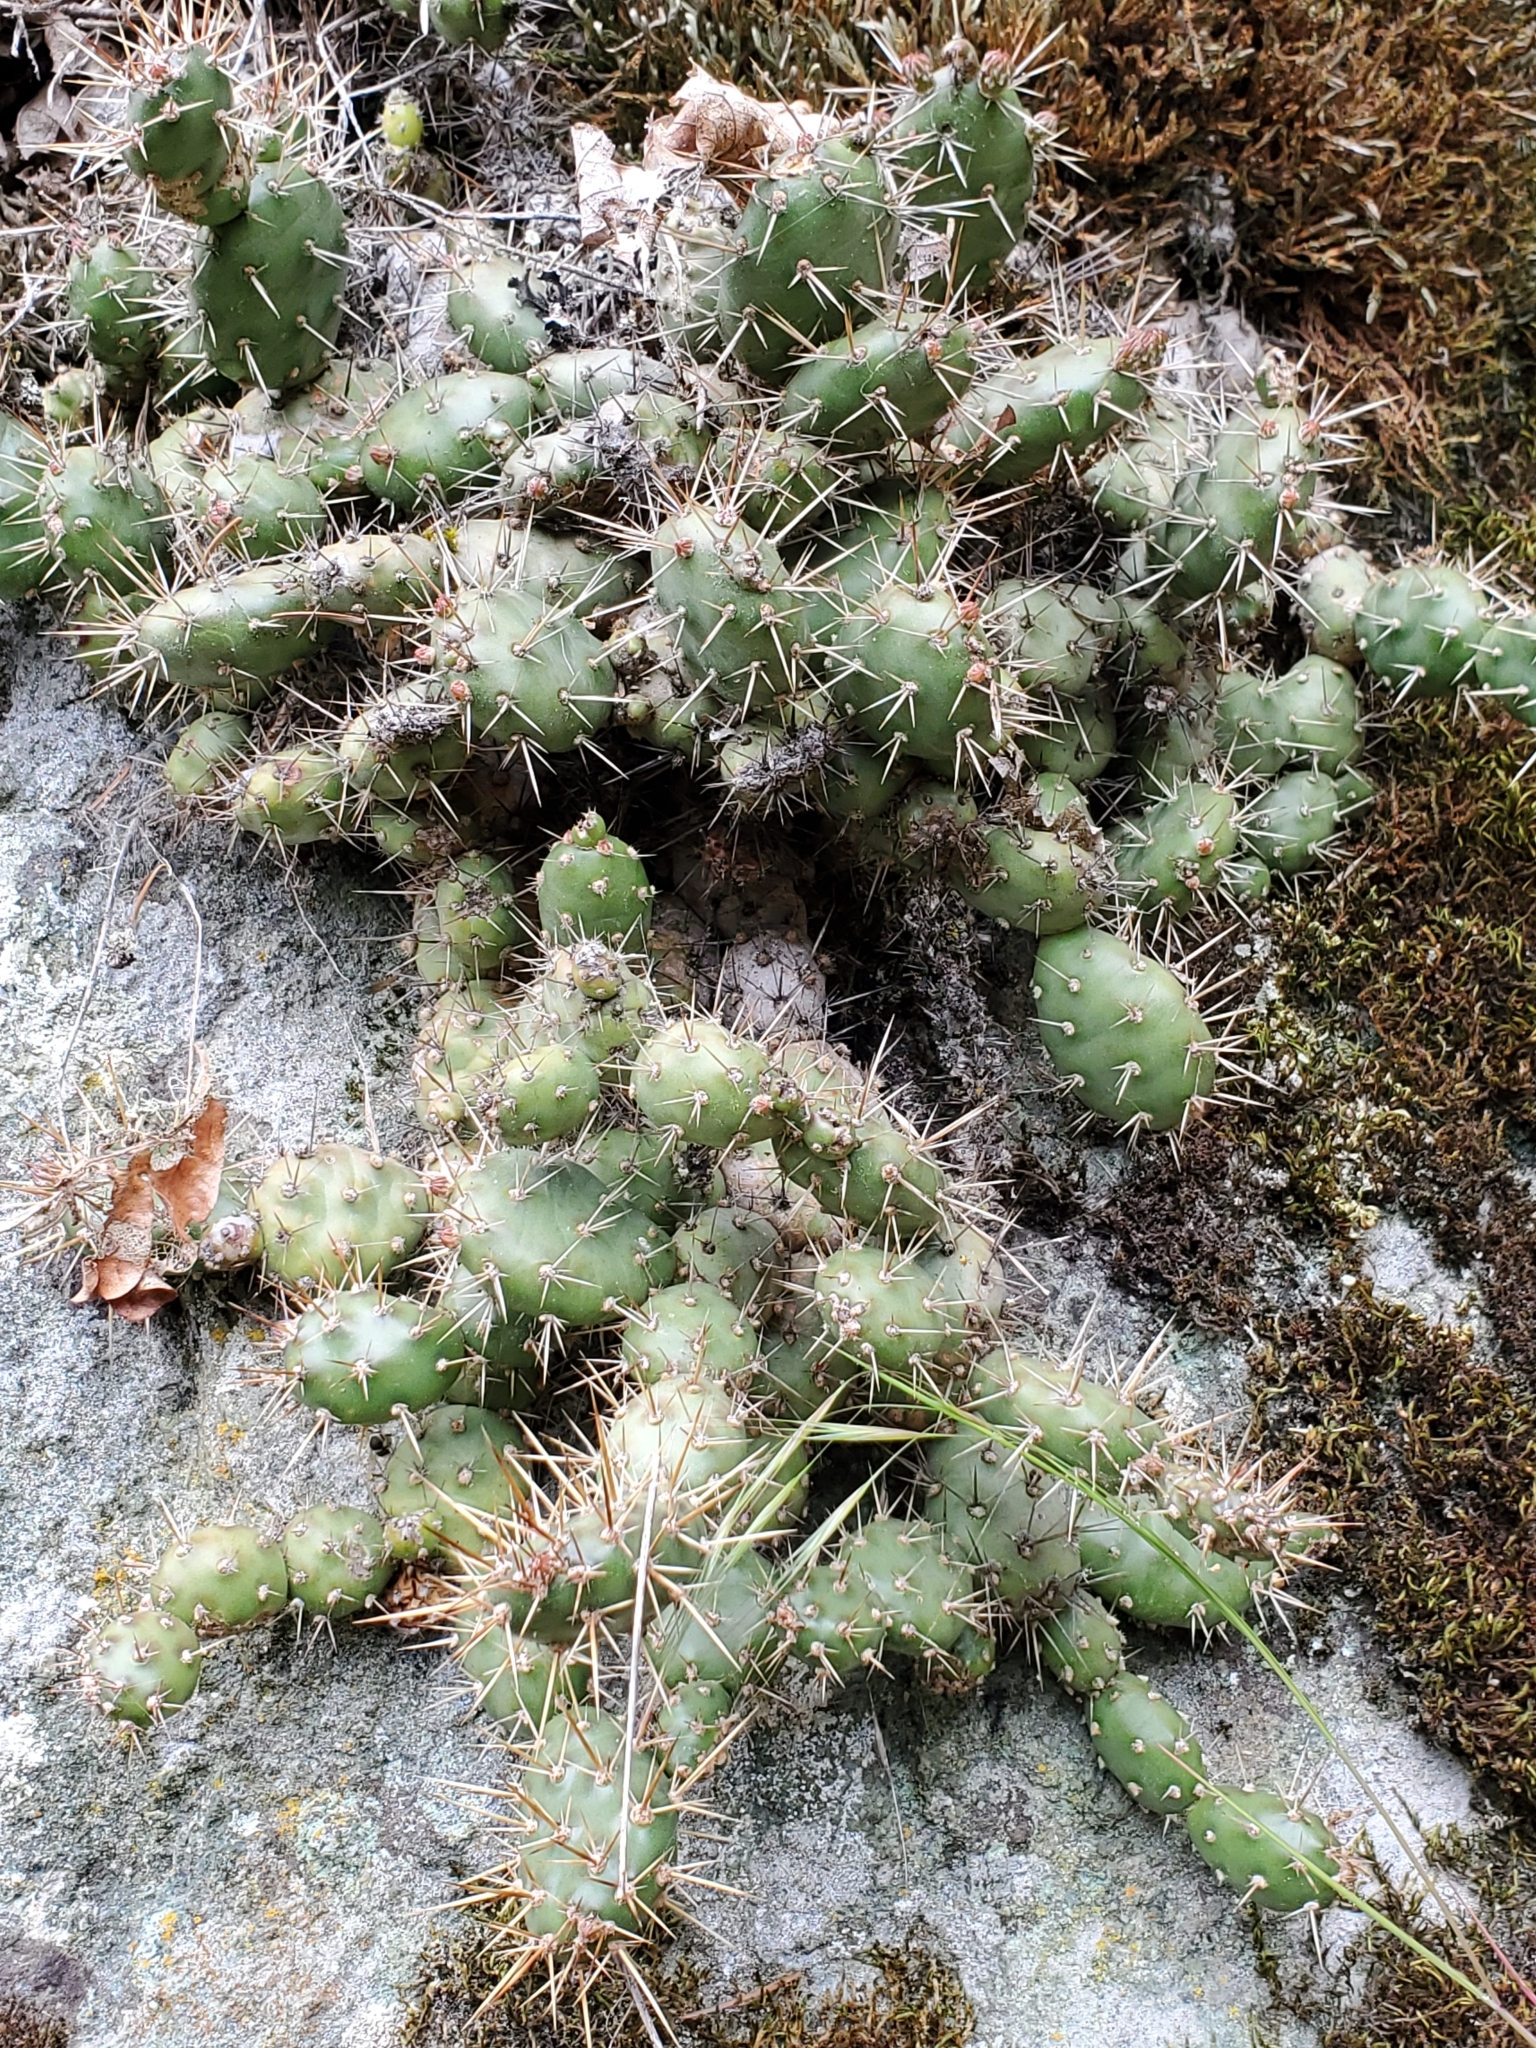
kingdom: Plantae
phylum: Tracheophyta
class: Magnoliopsida
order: Caryophyllales
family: Cactaceae
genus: Opuntia
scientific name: Opuntia fragilis
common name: Brittle cactus
